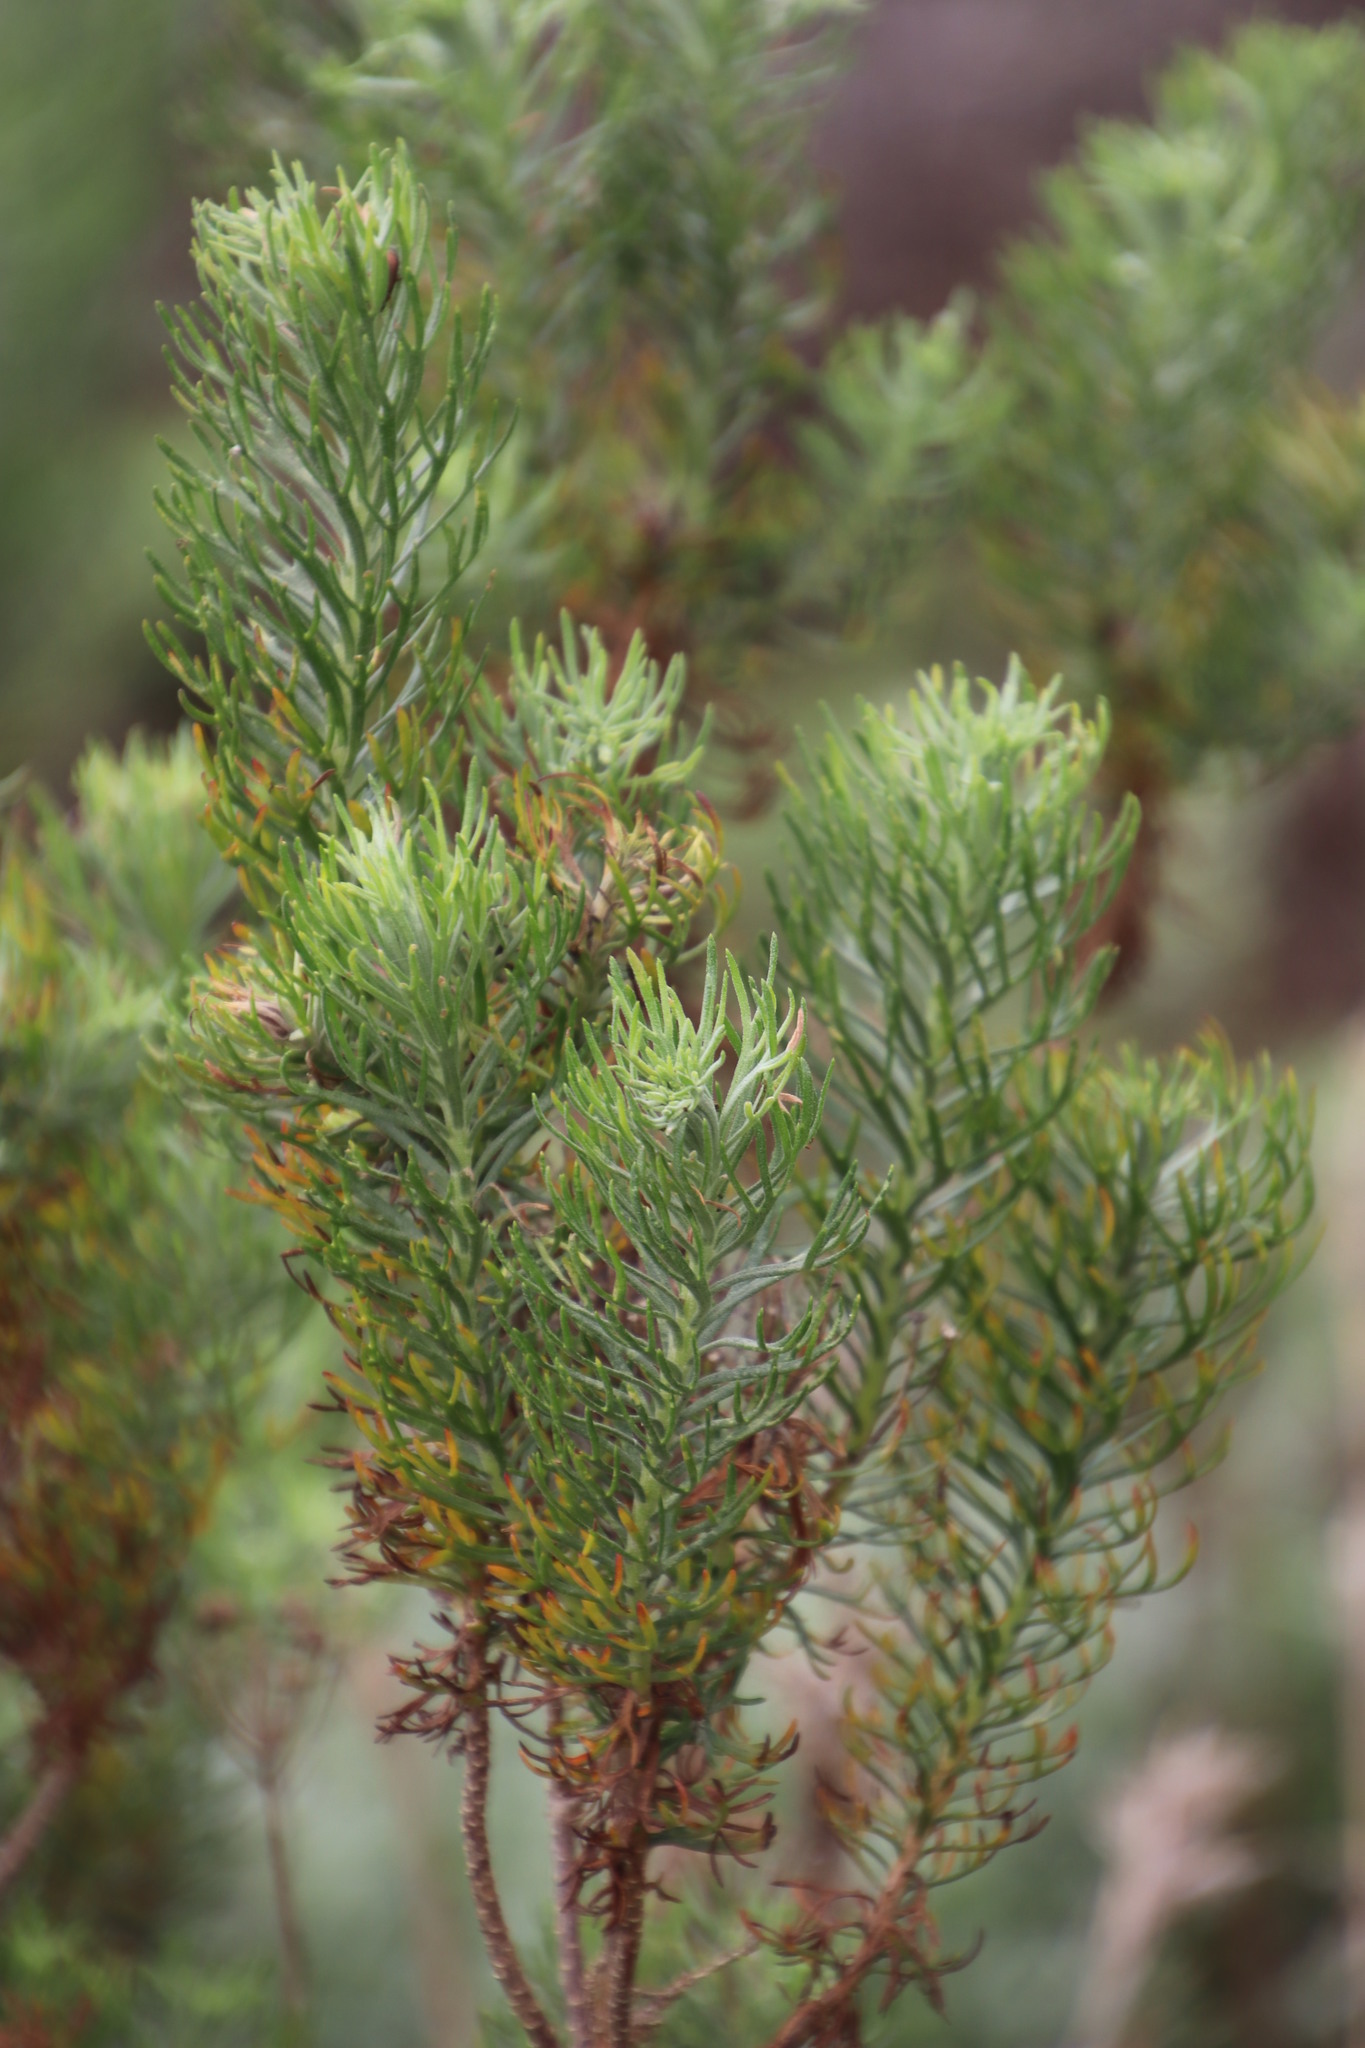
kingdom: Plantae
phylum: Tracheophyta
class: Magnoliopsida
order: Asterales
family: Asteraceae
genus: Athanasia
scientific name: Athanasia crithmifolia
